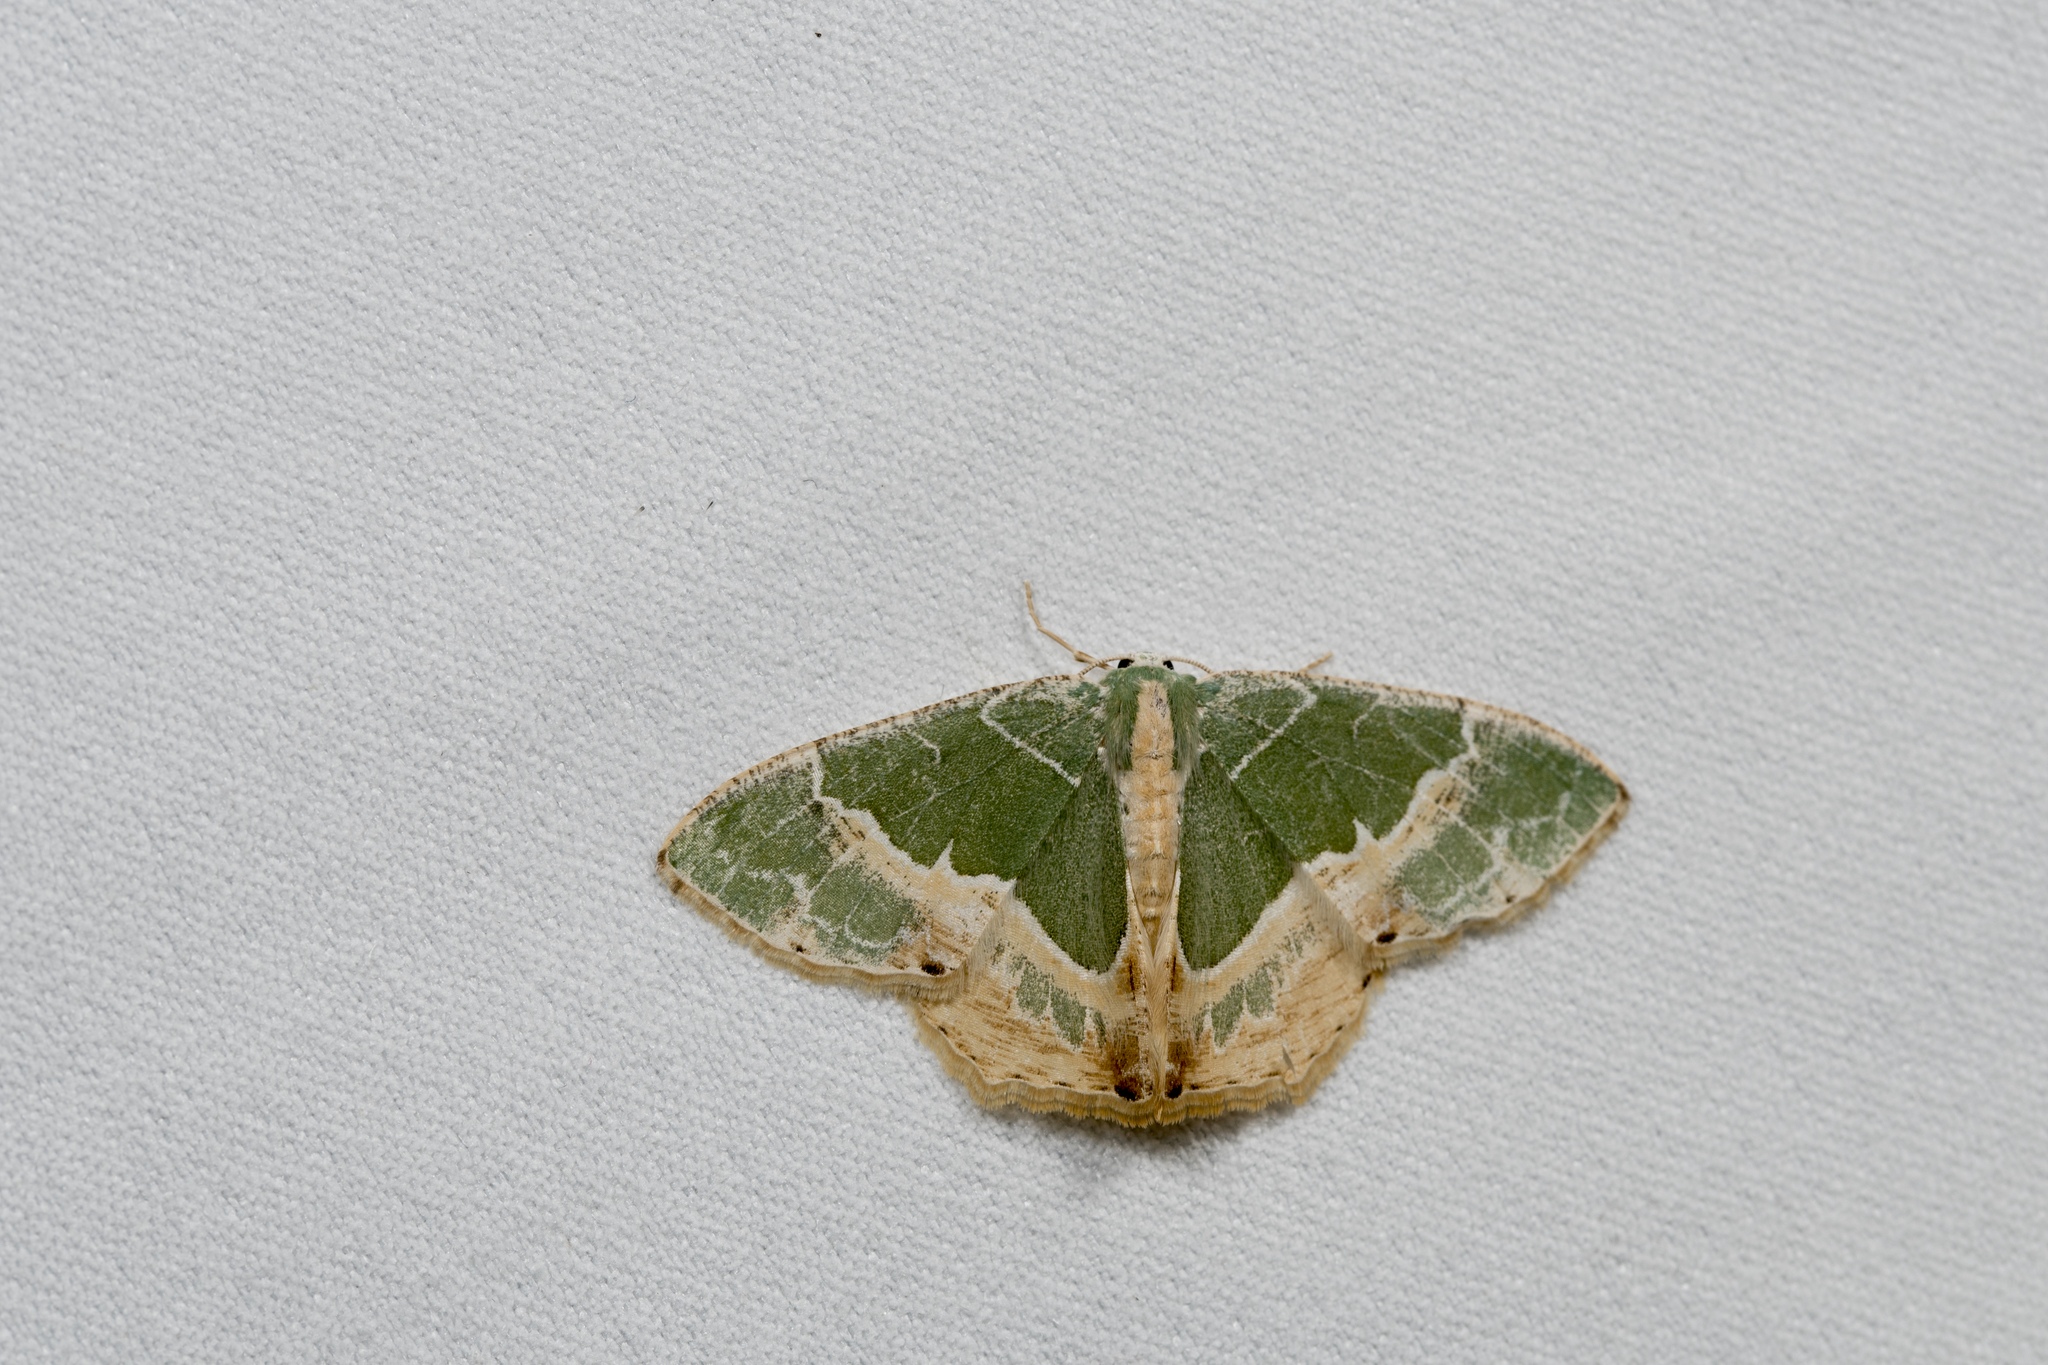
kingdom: Animalia
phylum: Arthropoda
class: Insecta
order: Lepidoptera
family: Geometridae
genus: Eucyclodes
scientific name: Eucyclodes lalashana
